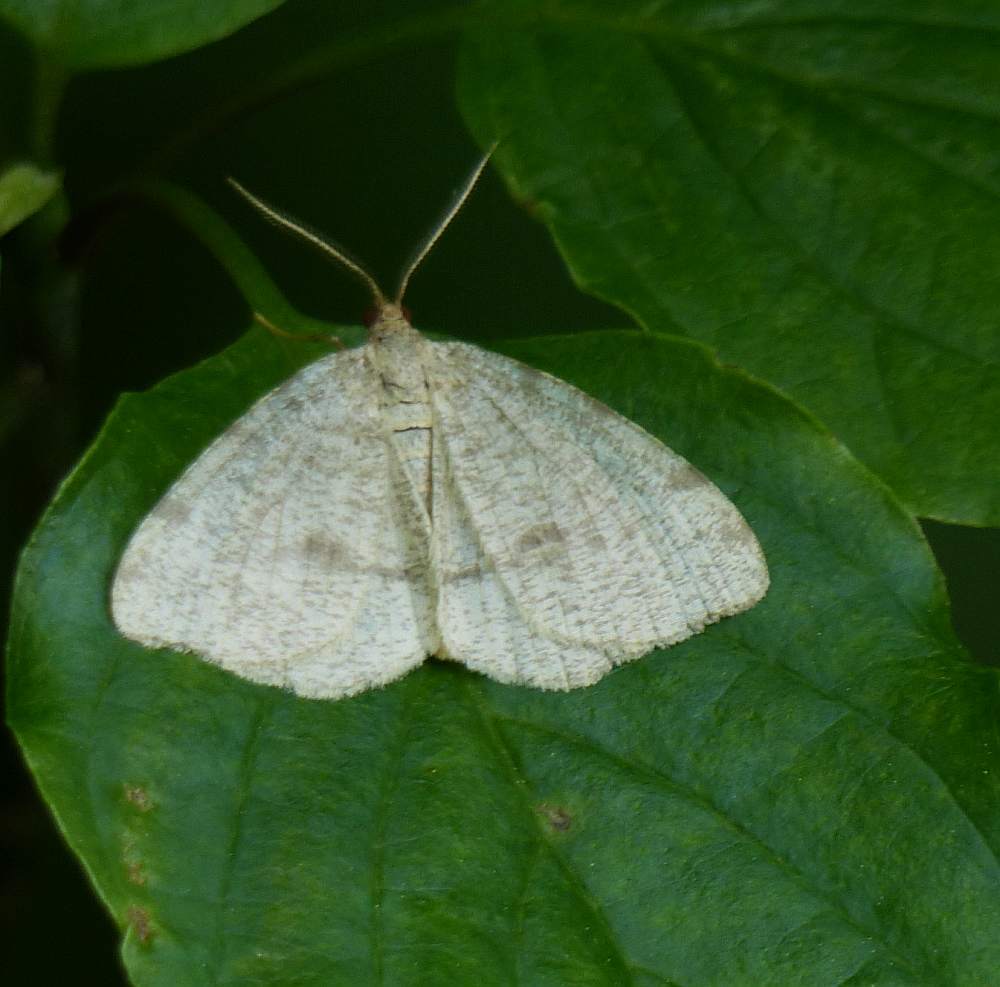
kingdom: Animalia
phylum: Arthropoda
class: Insecta
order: Lepidoptera
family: Geometridae
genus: Macaria
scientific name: Macaria evagaria
